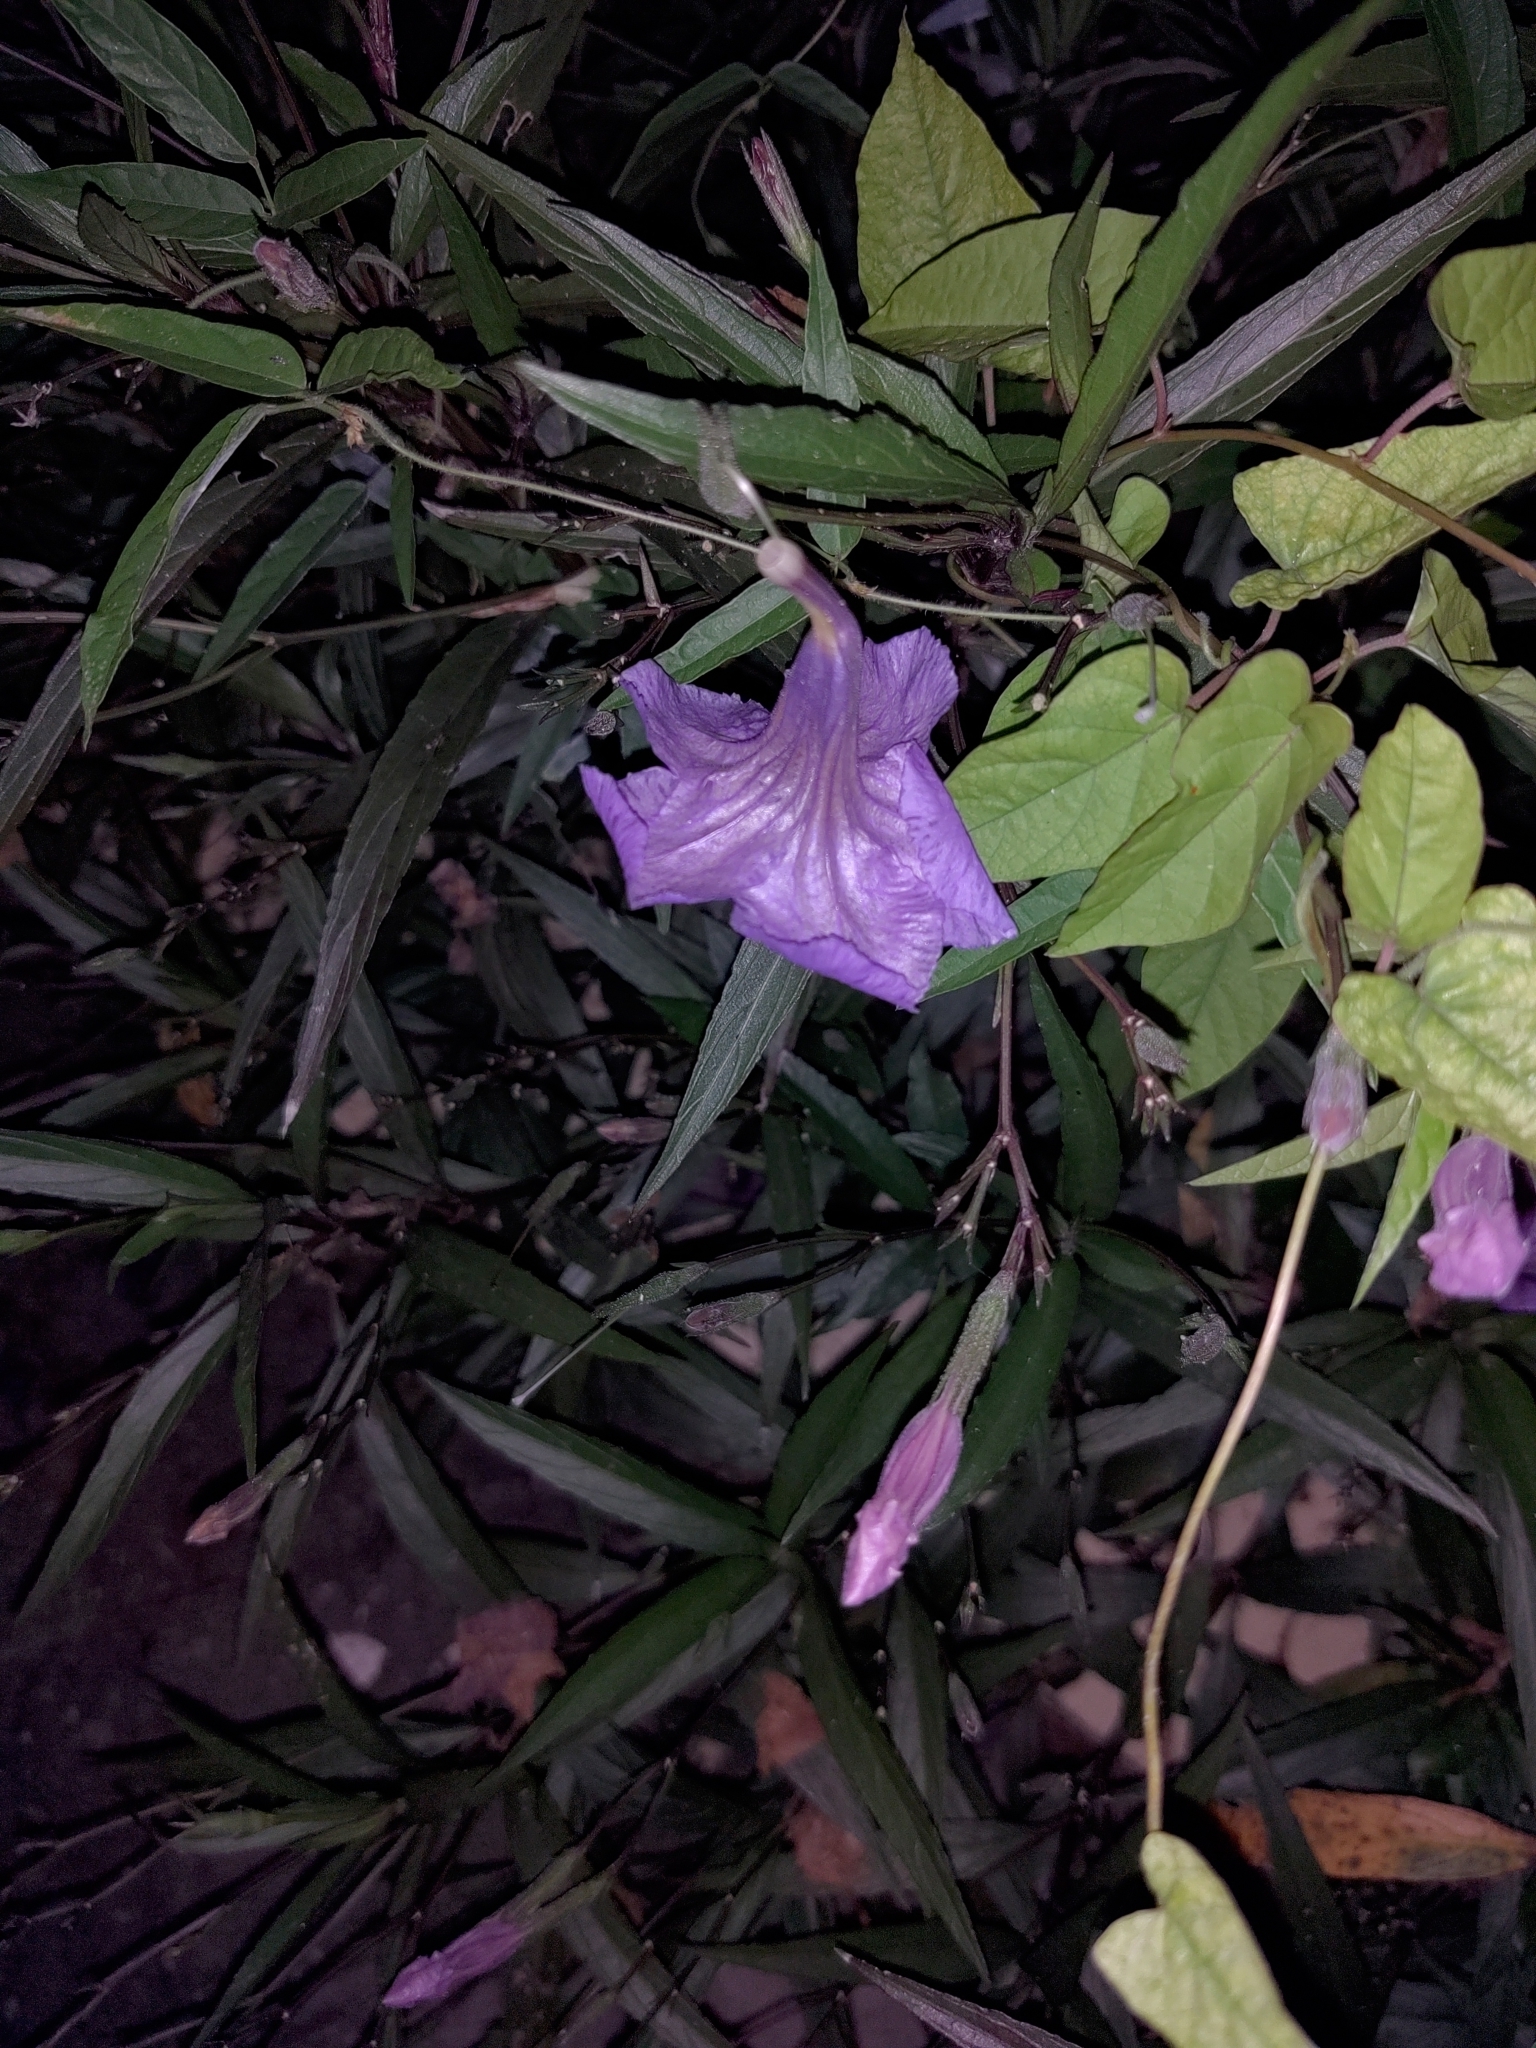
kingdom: Plantae
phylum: Tracheophyta
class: Magnoliopsida
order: Lamiales
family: Acanthaceae
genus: Ruellia
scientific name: Ruellia simplex
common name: Softseed wild petunia
